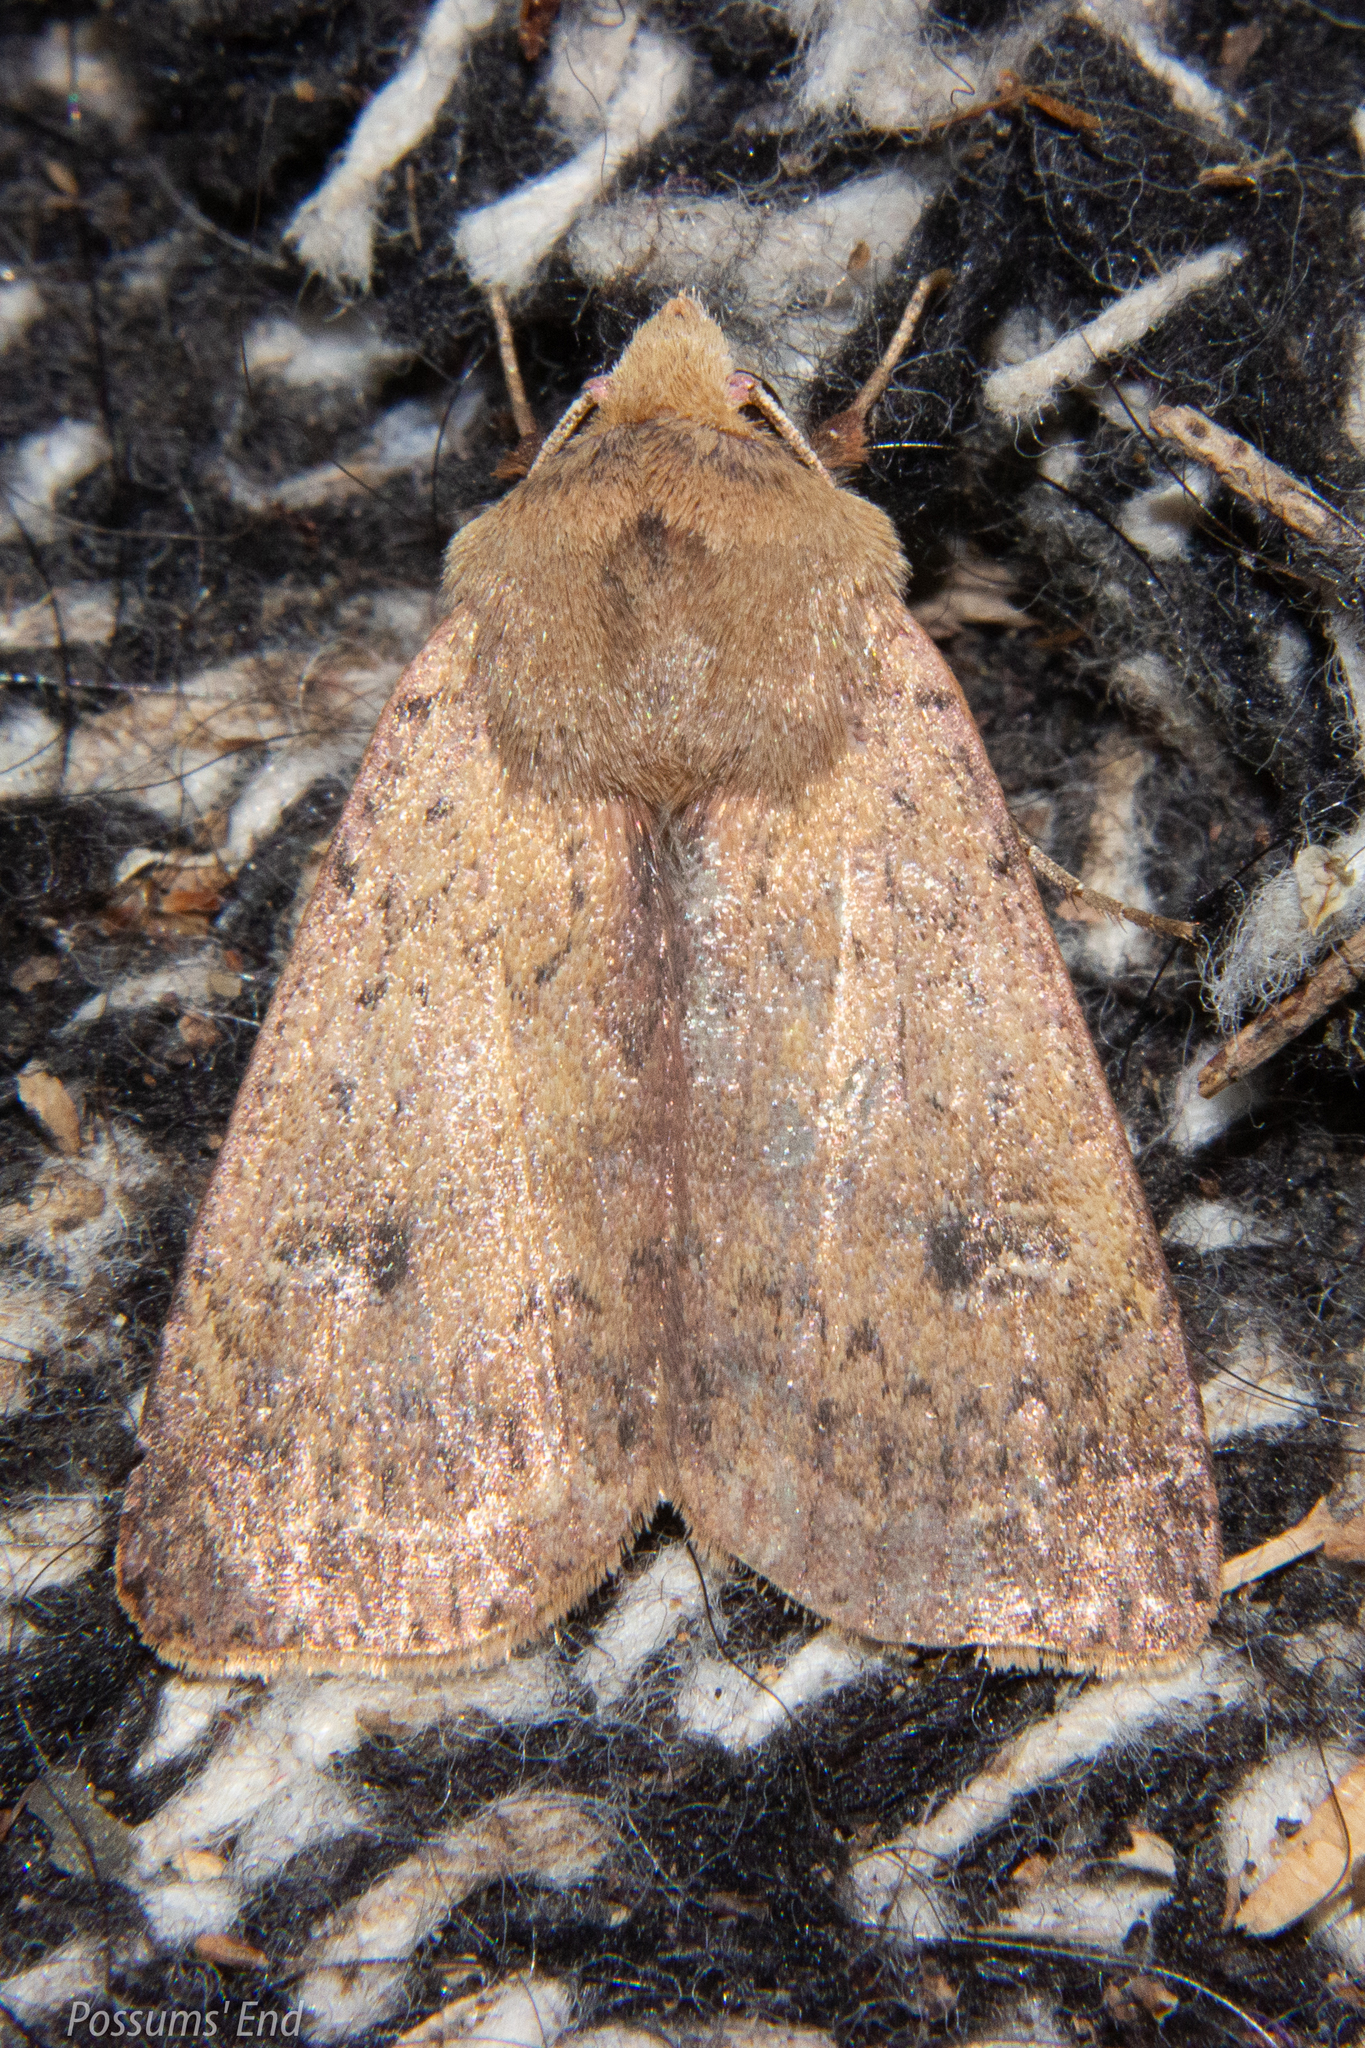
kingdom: Animalia
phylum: Arthropoda
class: Insecta
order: Lepidoptera
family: Noctuidae
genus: Diarsia
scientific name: Diarsia intermixta
